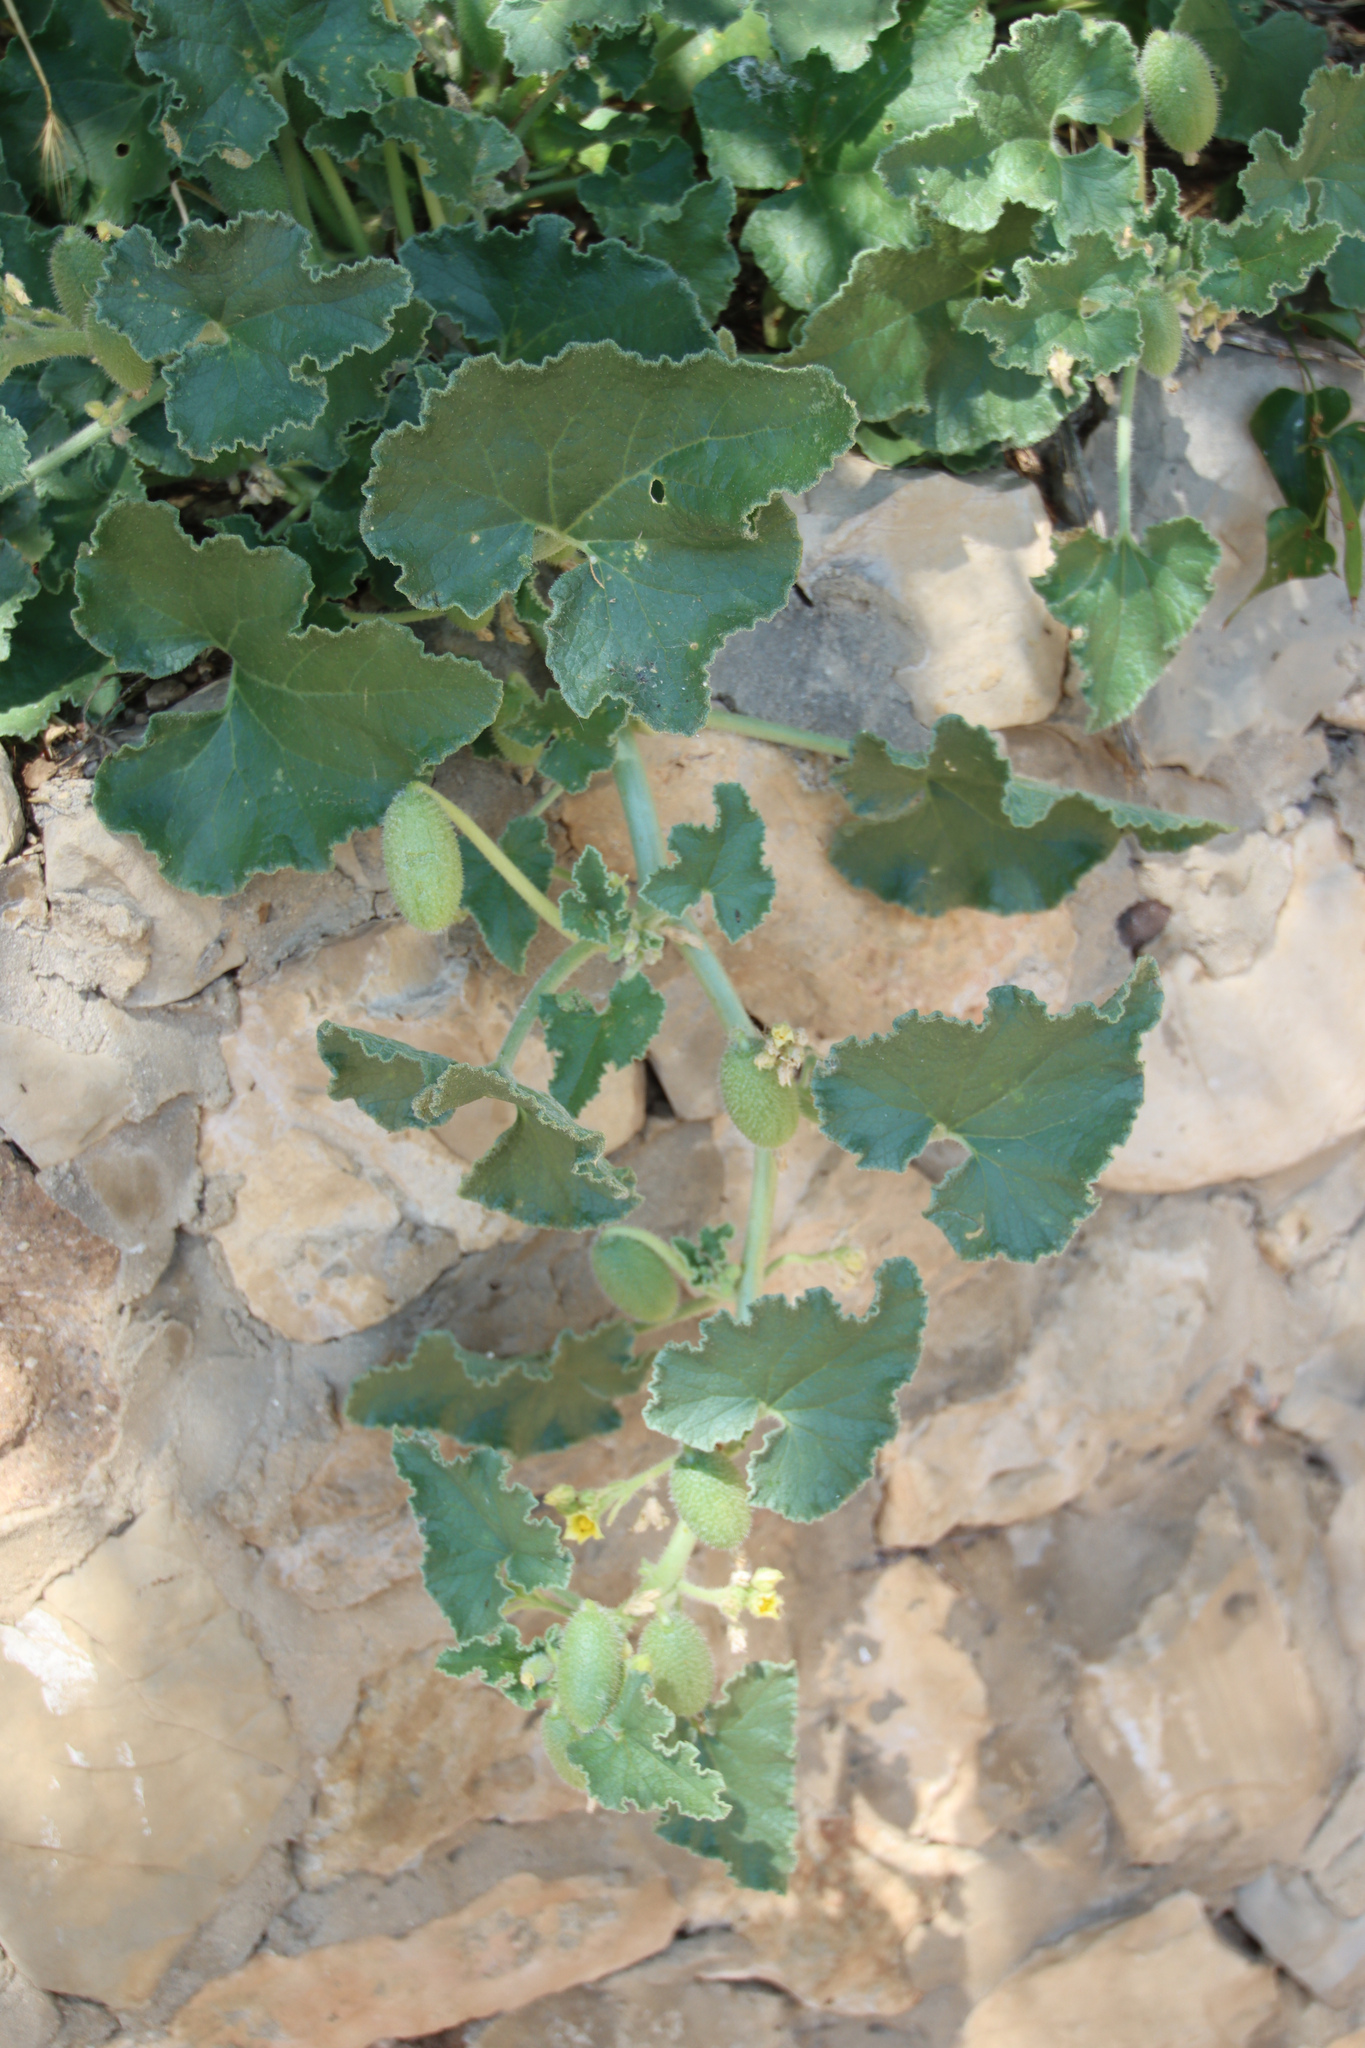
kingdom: Plantae
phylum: Tracheophyta
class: Magnoliopsida
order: Cucurbitales
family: Cucurbitaceae
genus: Ecballium
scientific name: Ecballium elaterium
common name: Squirting cucumber
